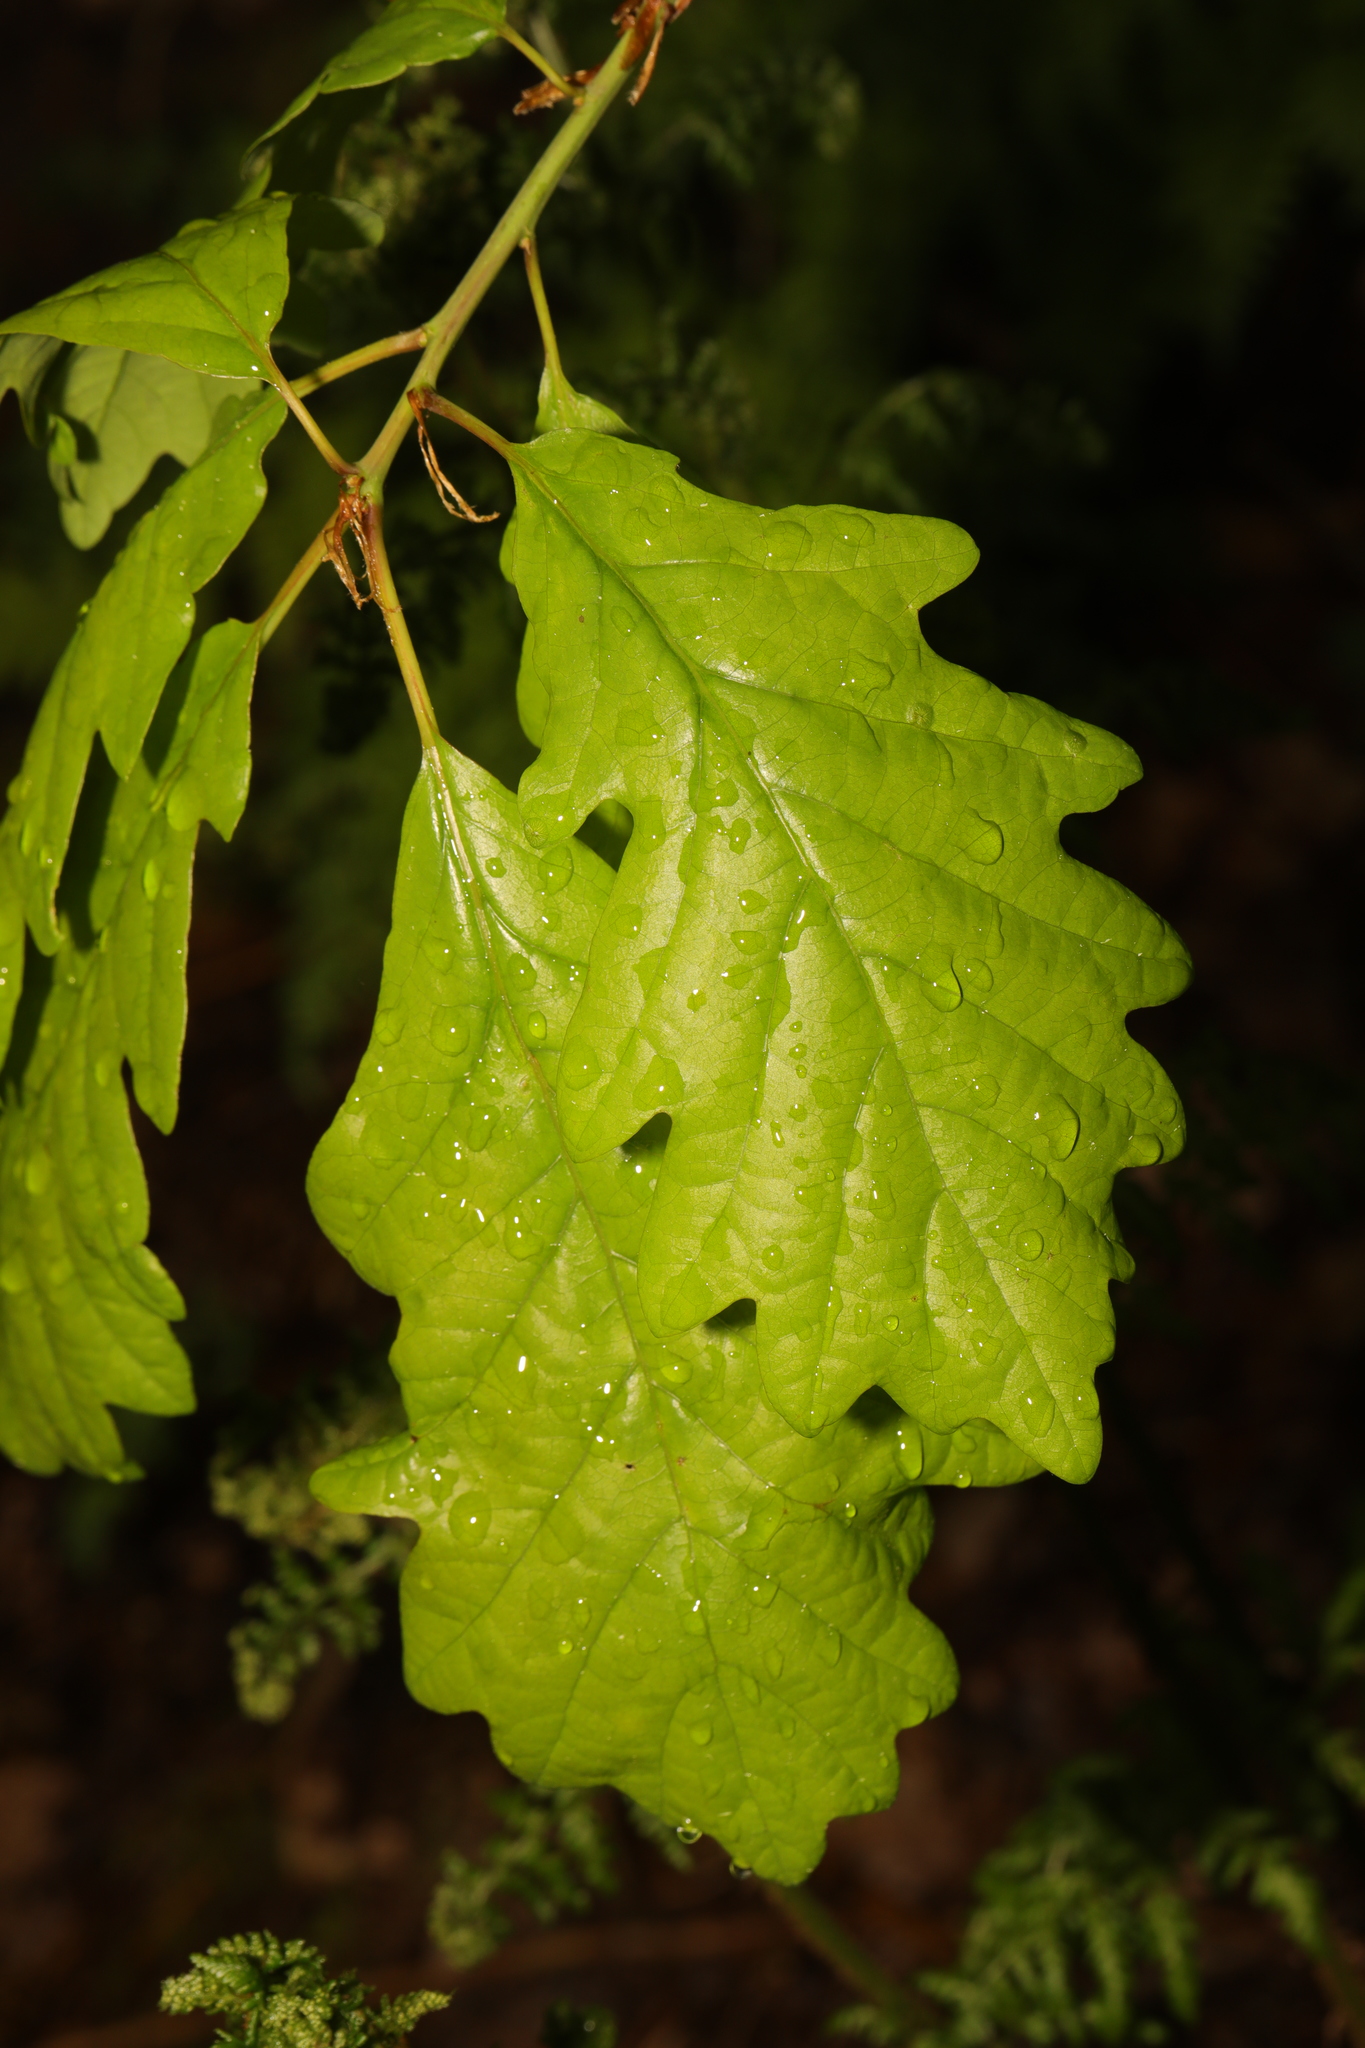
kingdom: Plantae
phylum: Tracheophyta
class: Magnoliopsida
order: Fagales
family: Fagaceae
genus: Quercus
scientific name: Quercus petraea
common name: Sessile oak
